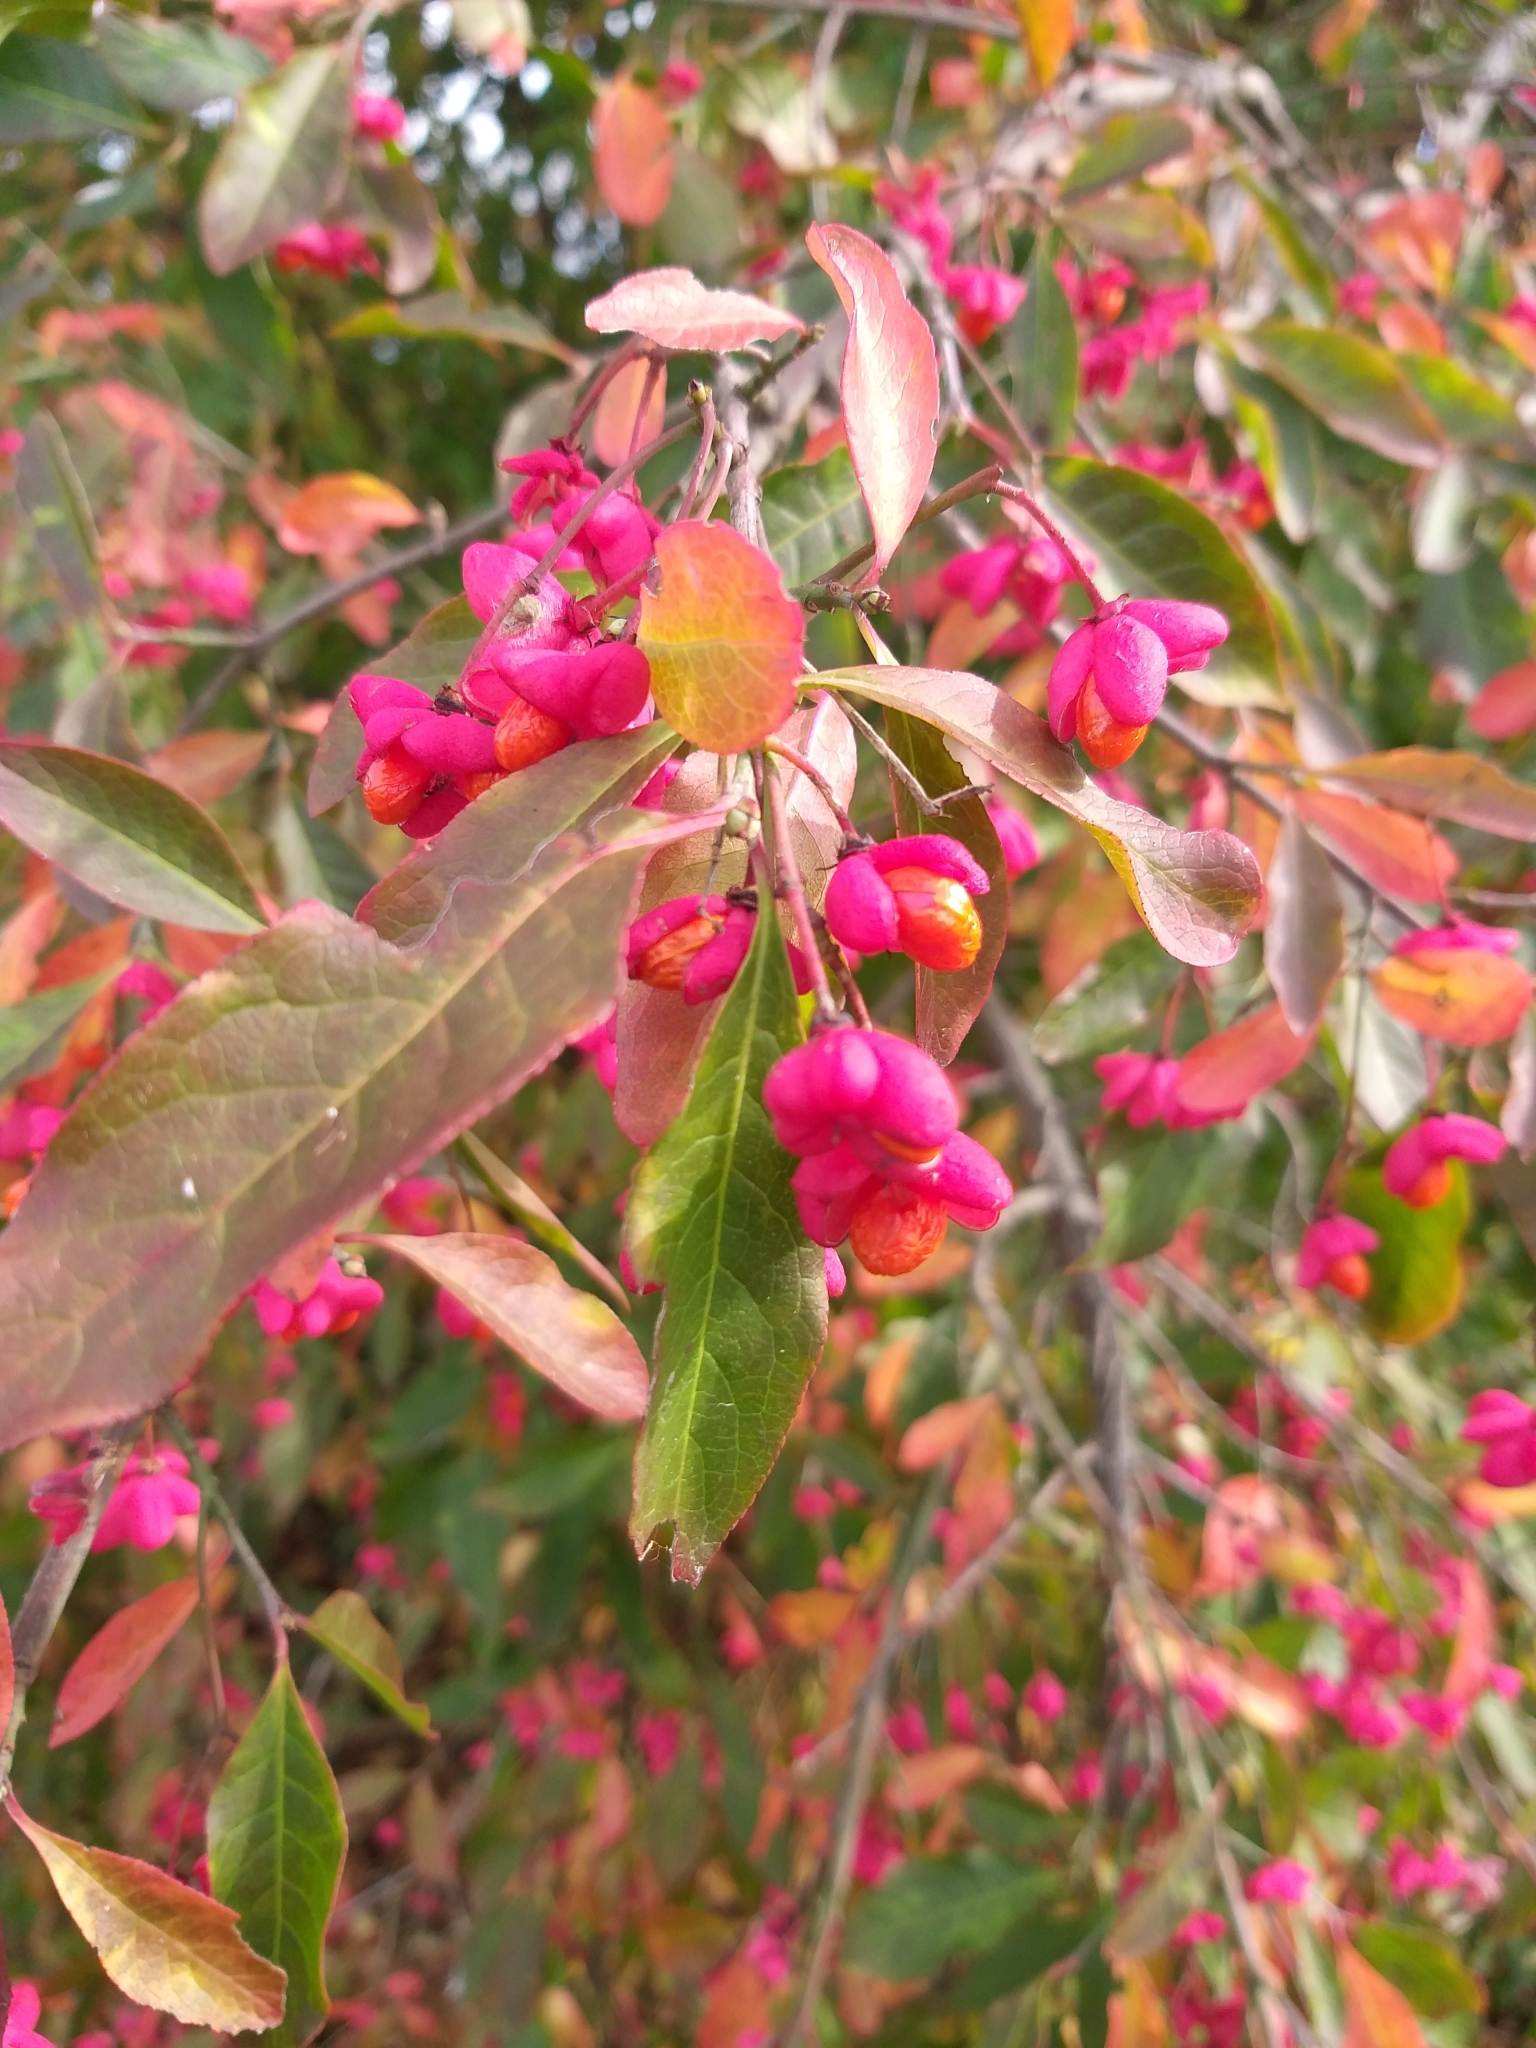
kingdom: Plantae
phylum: Tracheophyta
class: Magnoliopsida
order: Celastrales
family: Celastraceae
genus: Euonymus
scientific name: Euonymus europaeus
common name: Spindle
